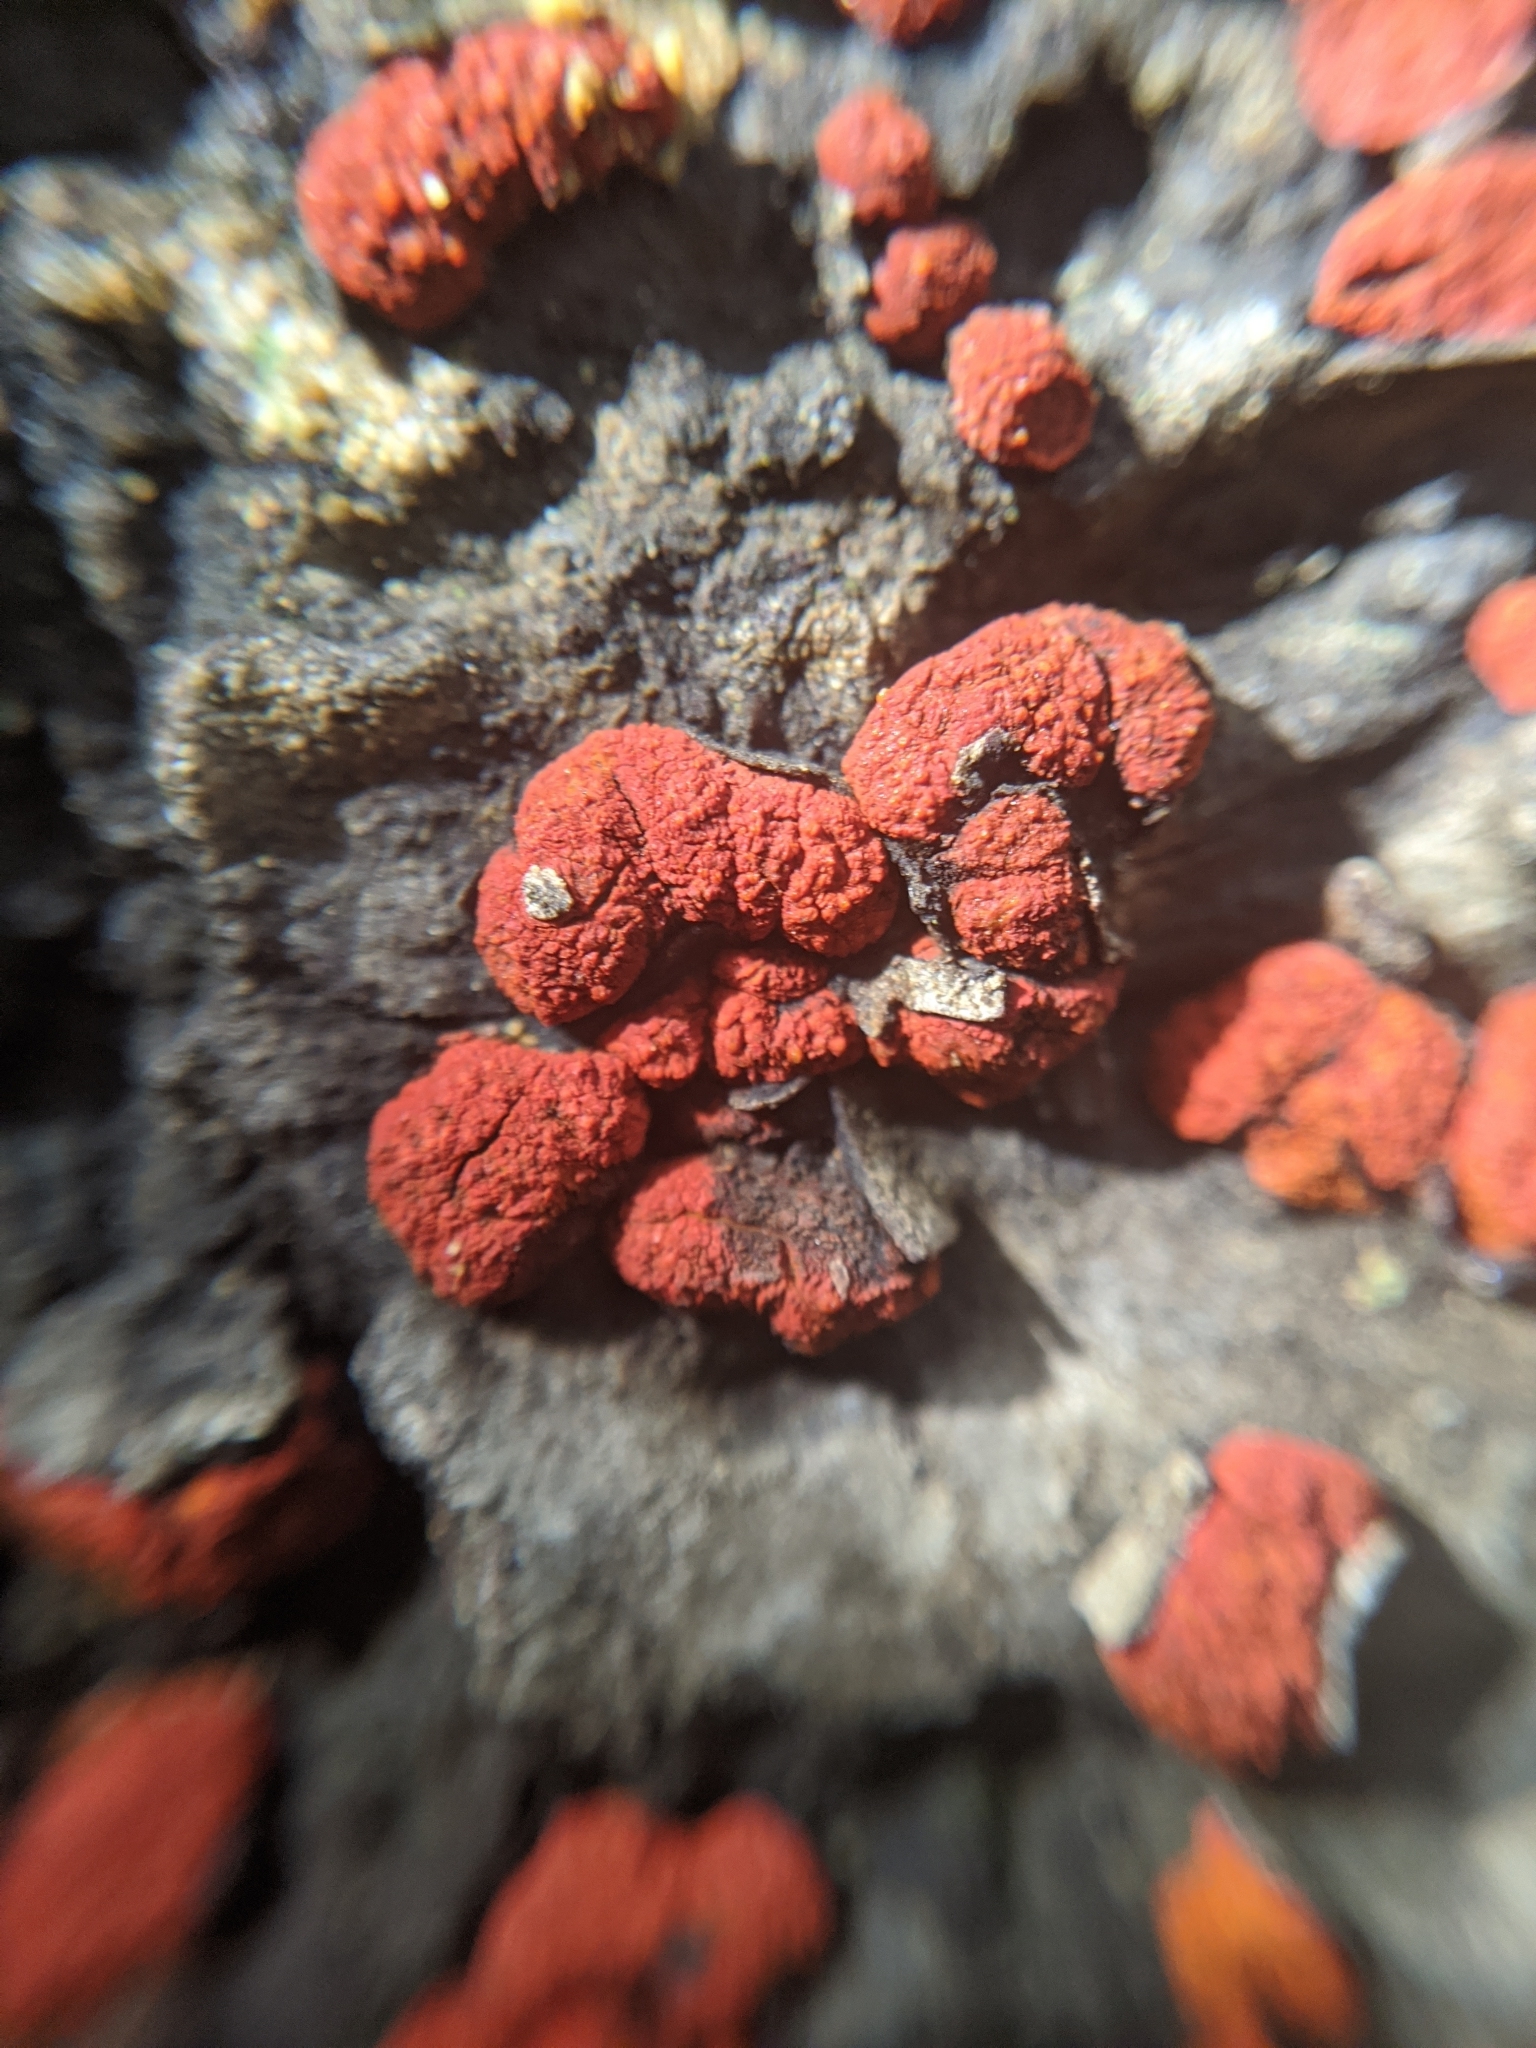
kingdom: Fungi
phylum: Ascomycota
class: Sordariomycetes
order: Diaporthales
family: Cryphonectriaceae
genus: Amphilogia
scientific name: Amphilogia gyrosa
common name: Orange hobnail canker
